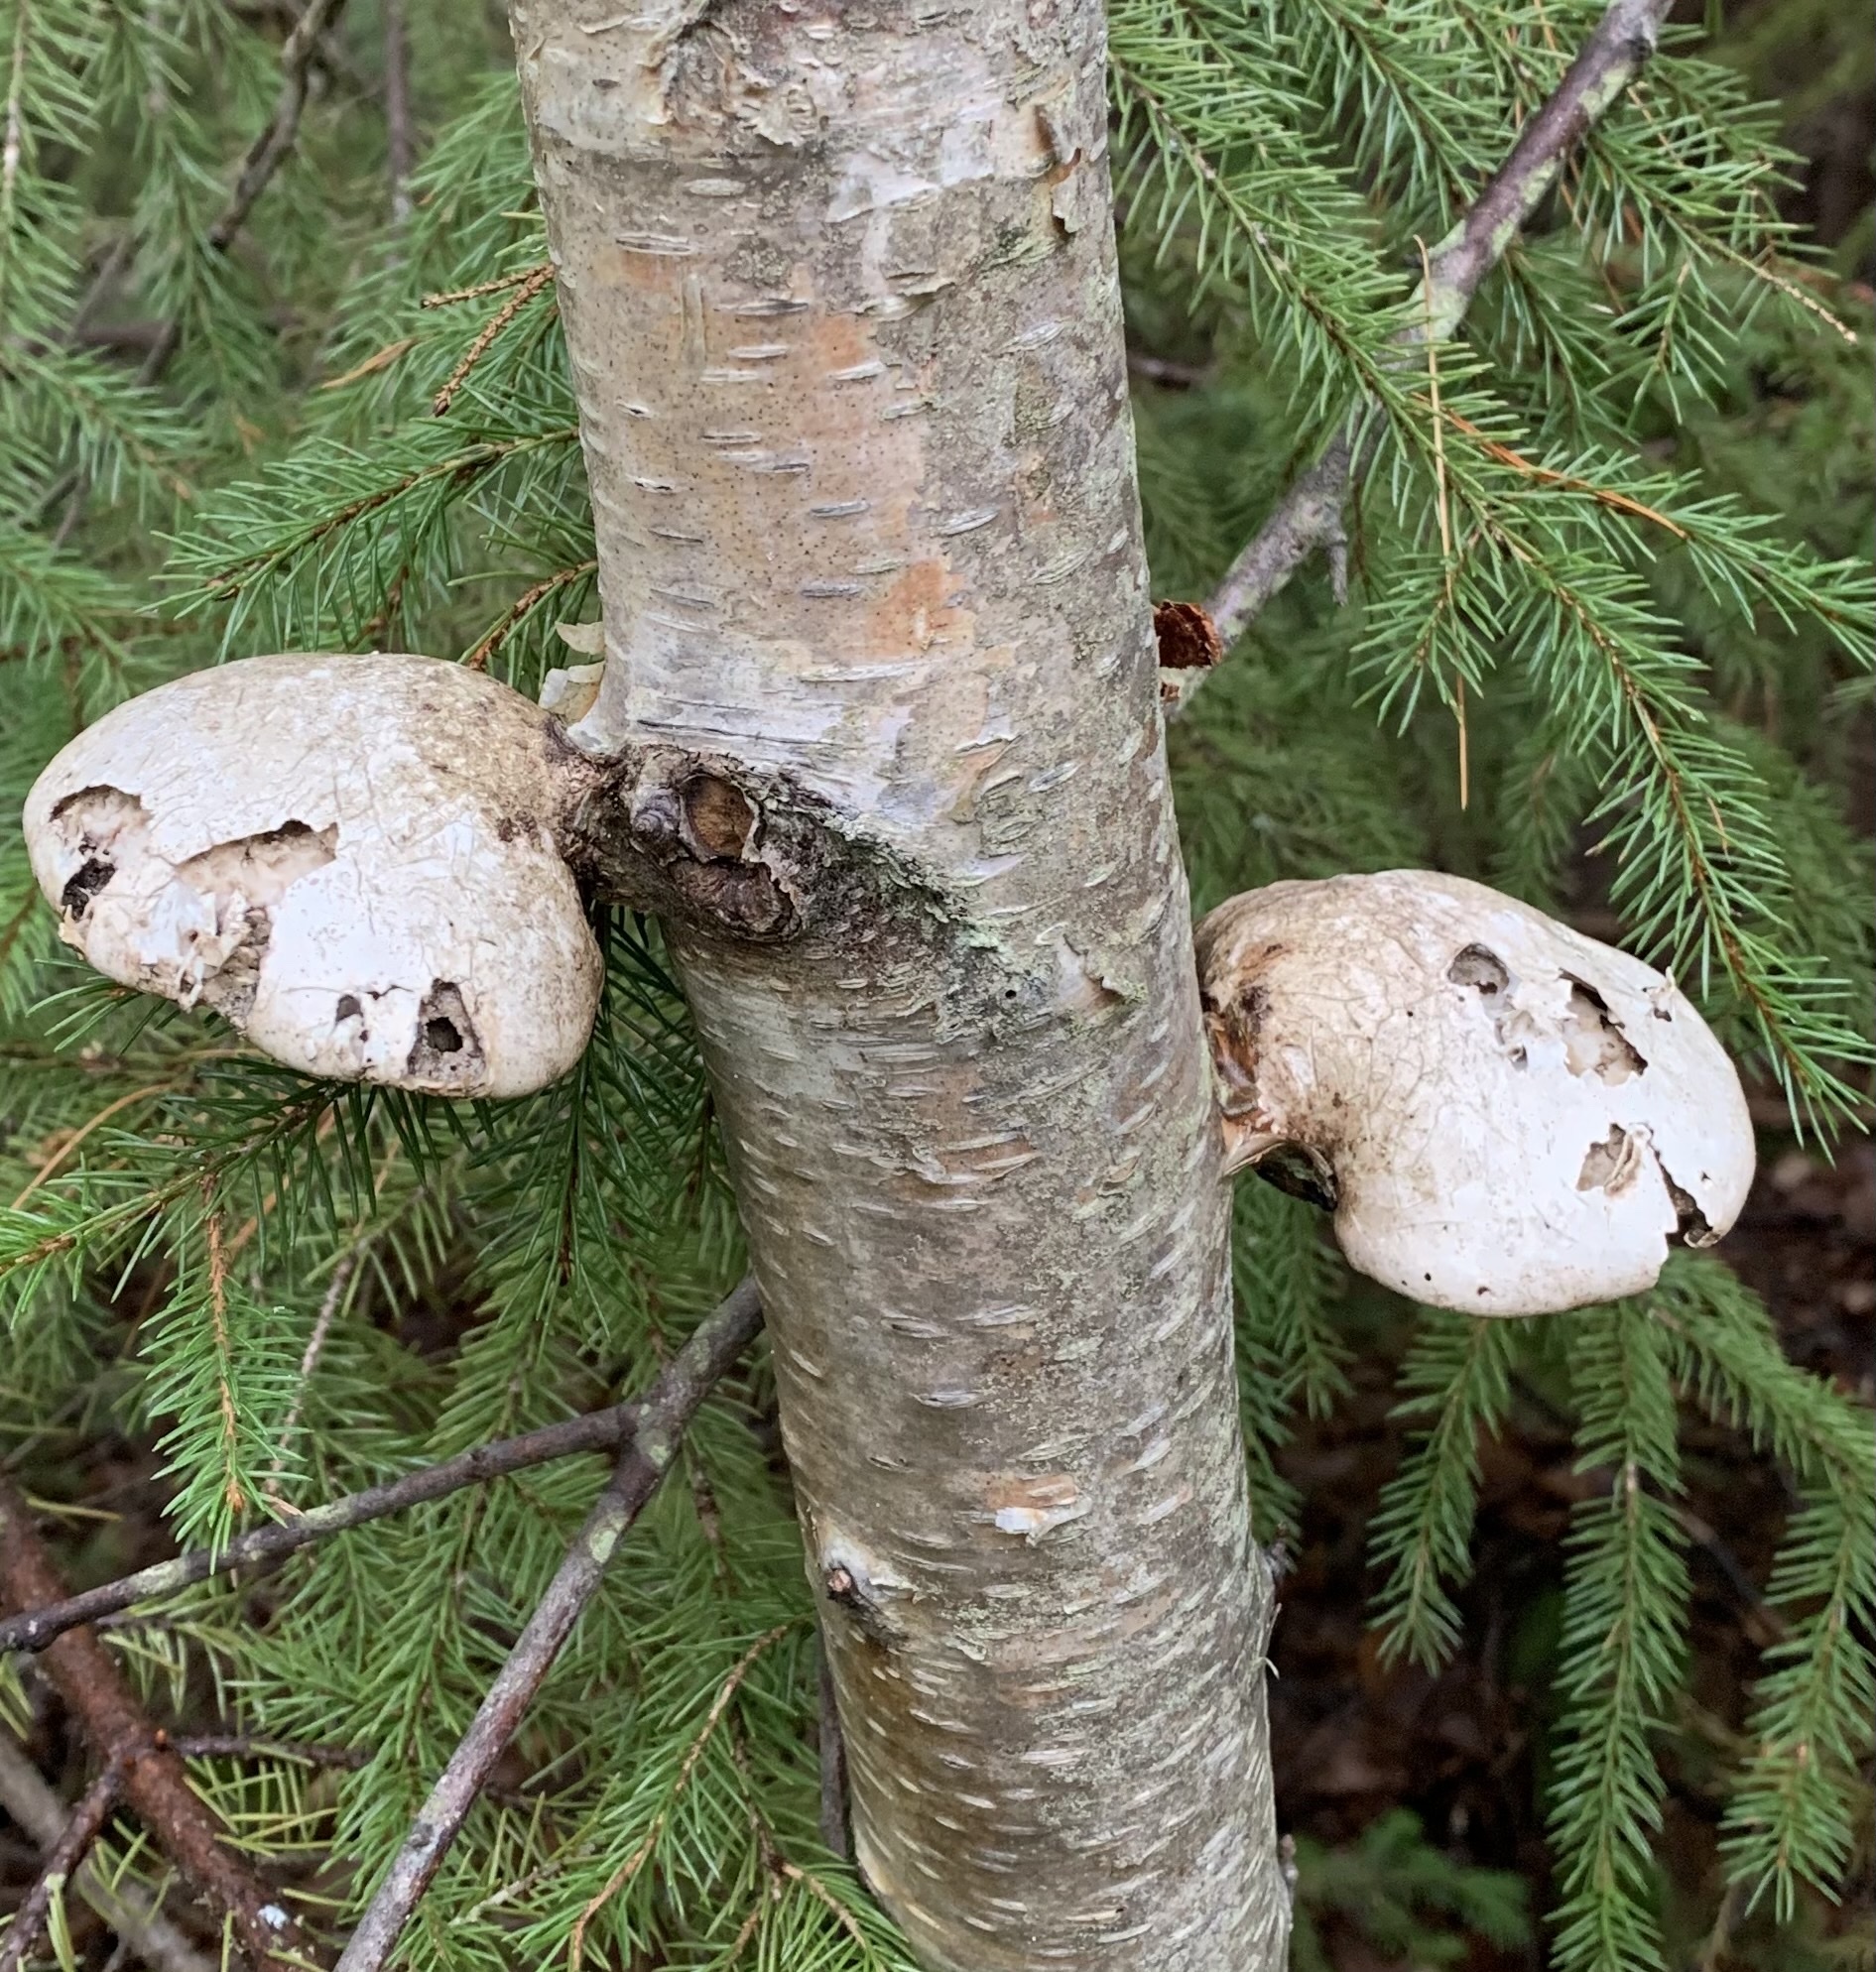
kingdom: Fungi
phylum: Basidiomycota
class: Agaricomycetes
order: Polyporales
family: Fomitopsidaceae
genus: Fomitopsis
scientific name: Fomitopsis betulina
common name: Birch polypore
